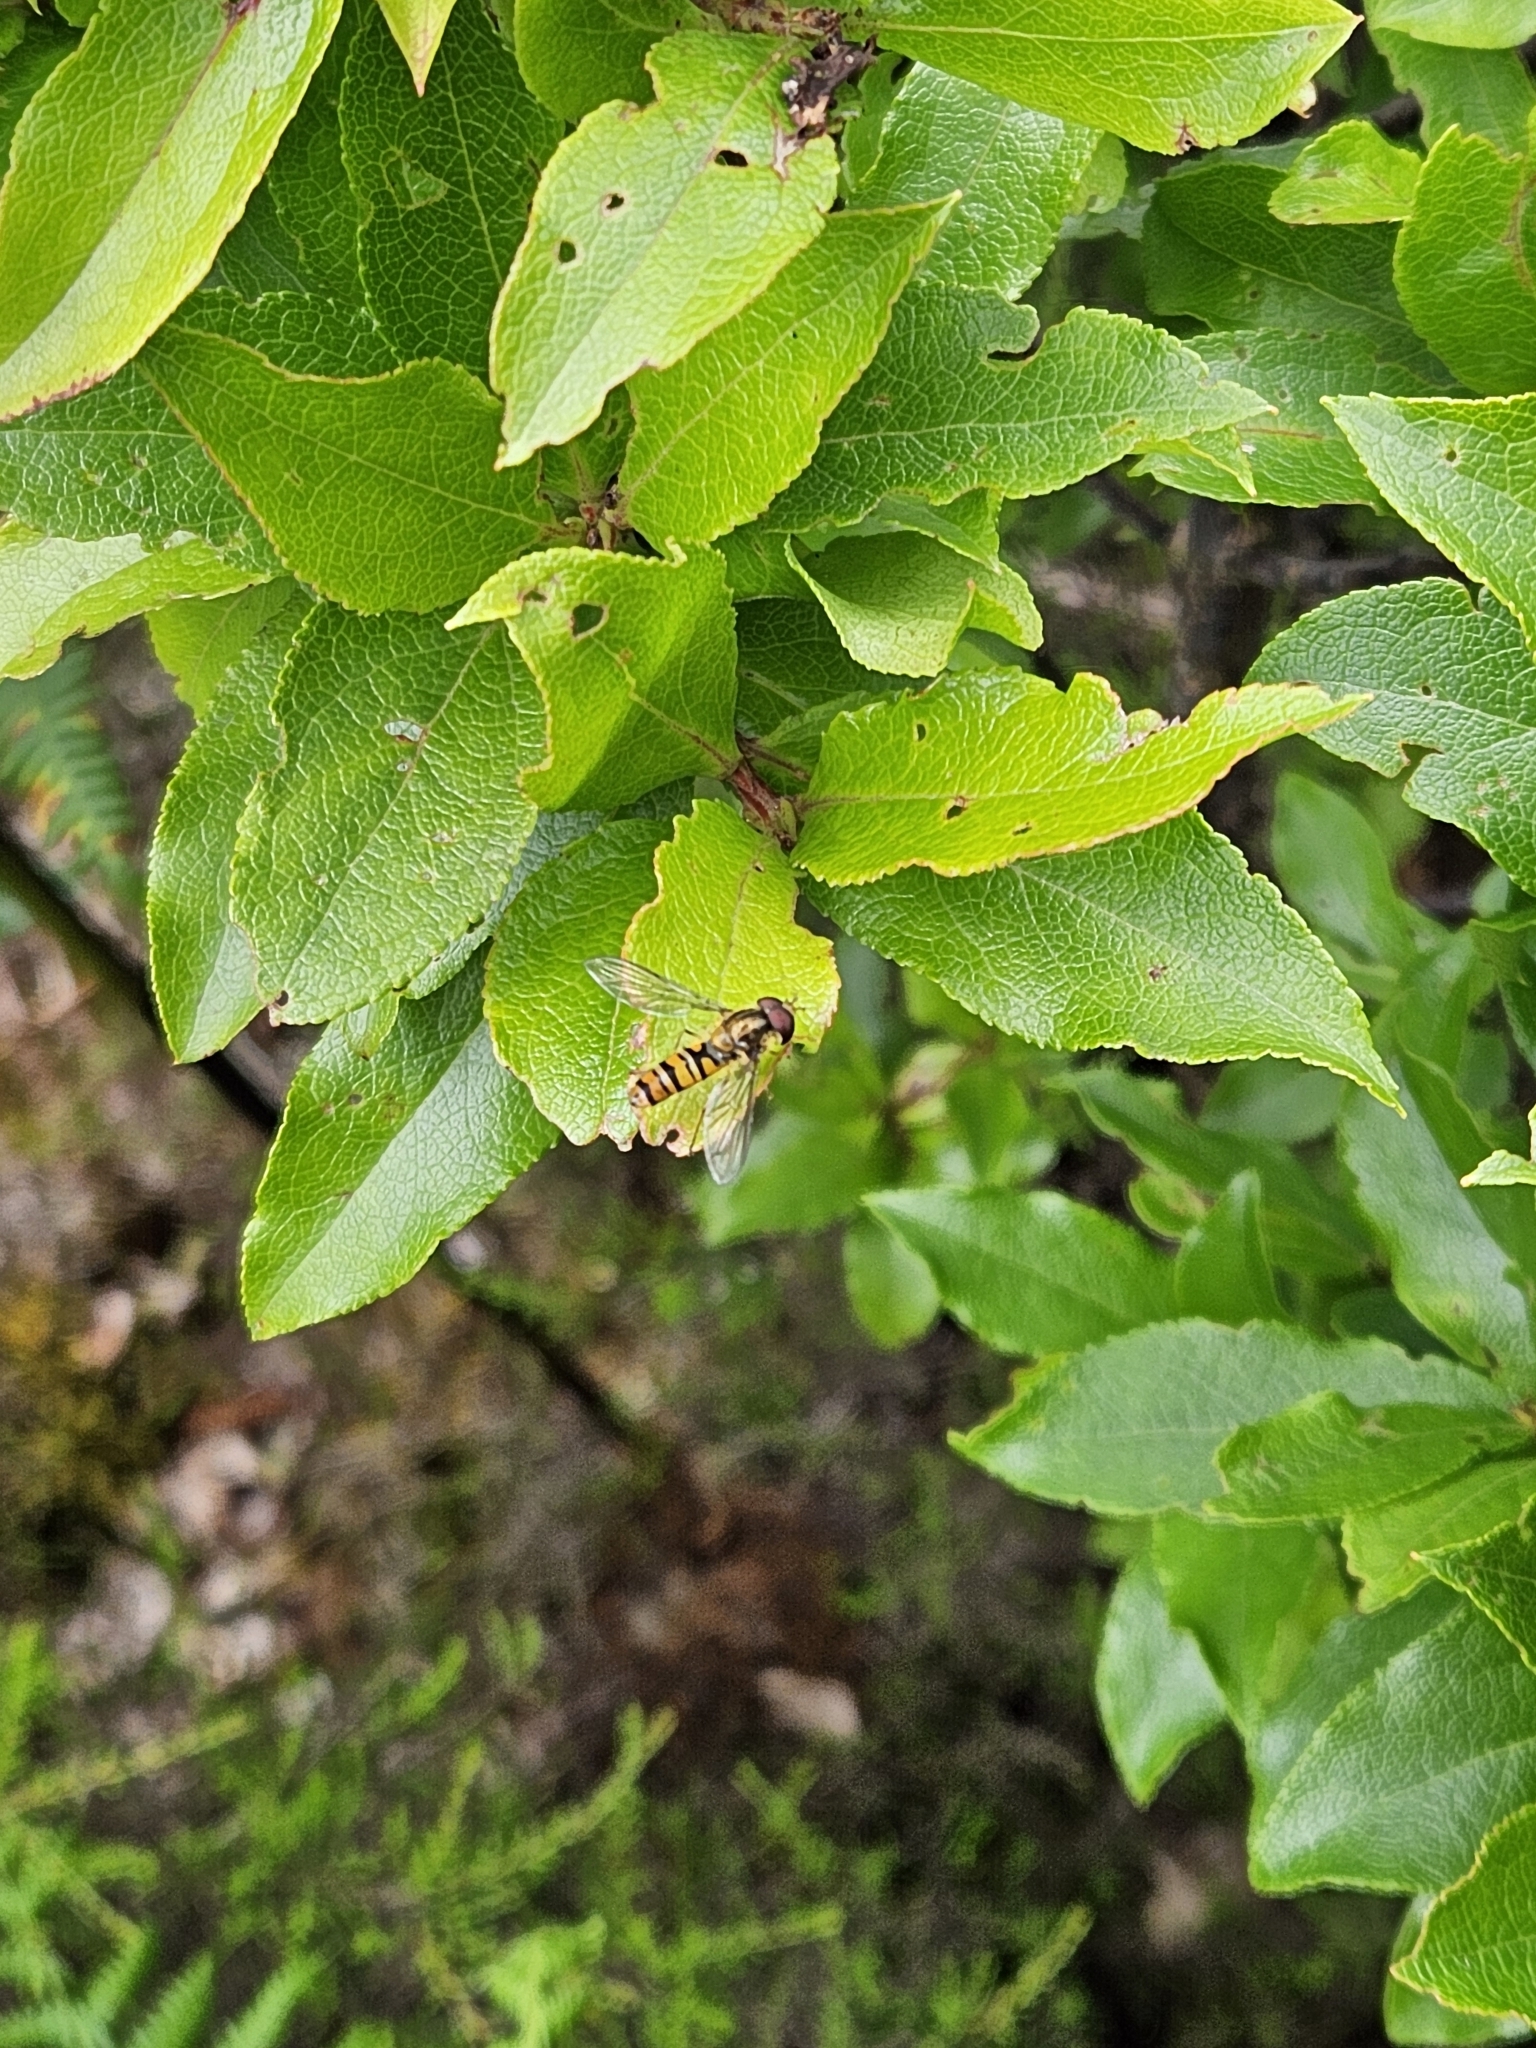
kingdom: Animalia
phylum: Arthropoda
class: Insecta
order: Diptera
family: Syrphidae
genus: Episyrphus
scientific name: Episyrphus balteatus
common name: Marmalade hoverfly
